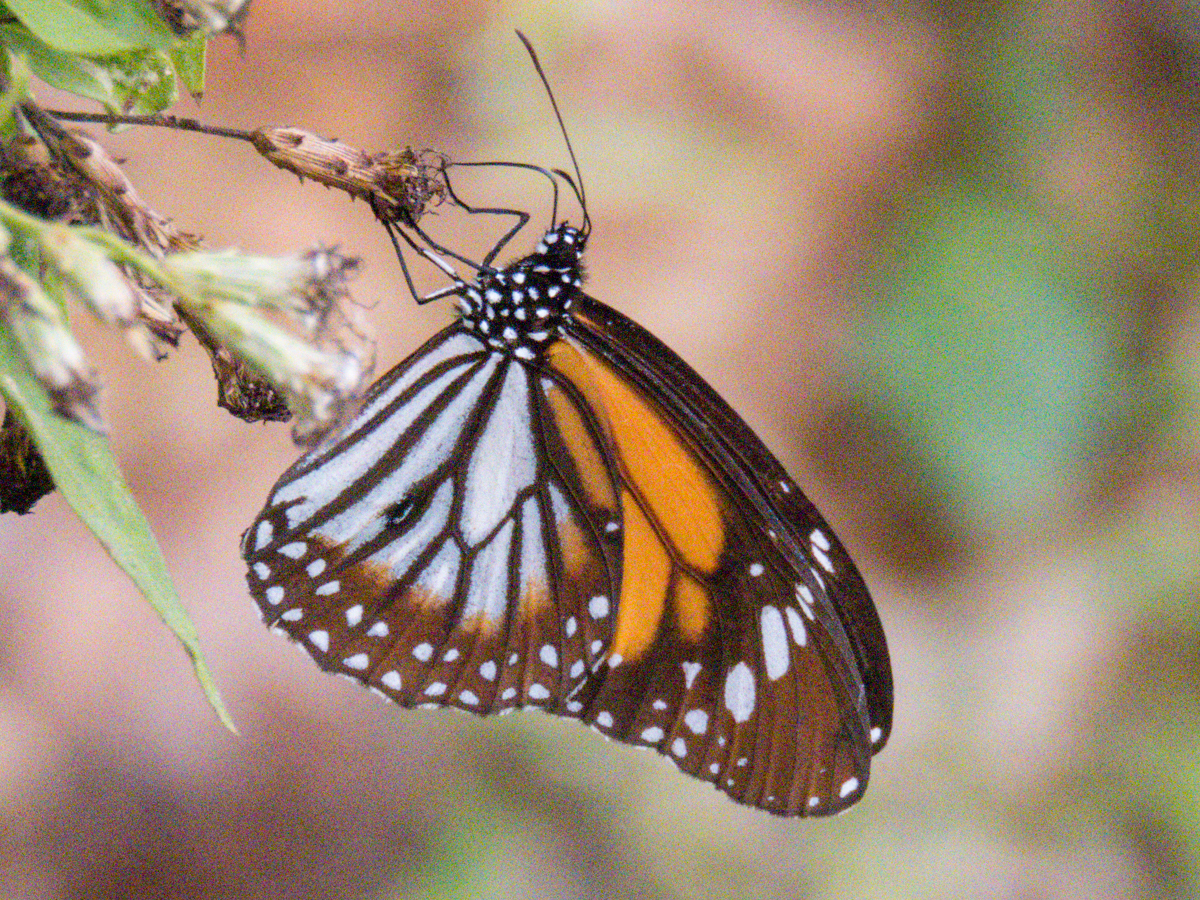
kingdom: Animalia
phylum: Arthropoda
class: Insecta
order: Lepidoptera
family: Nymphalidae
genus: Danaus
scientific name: Danaus melanippus
